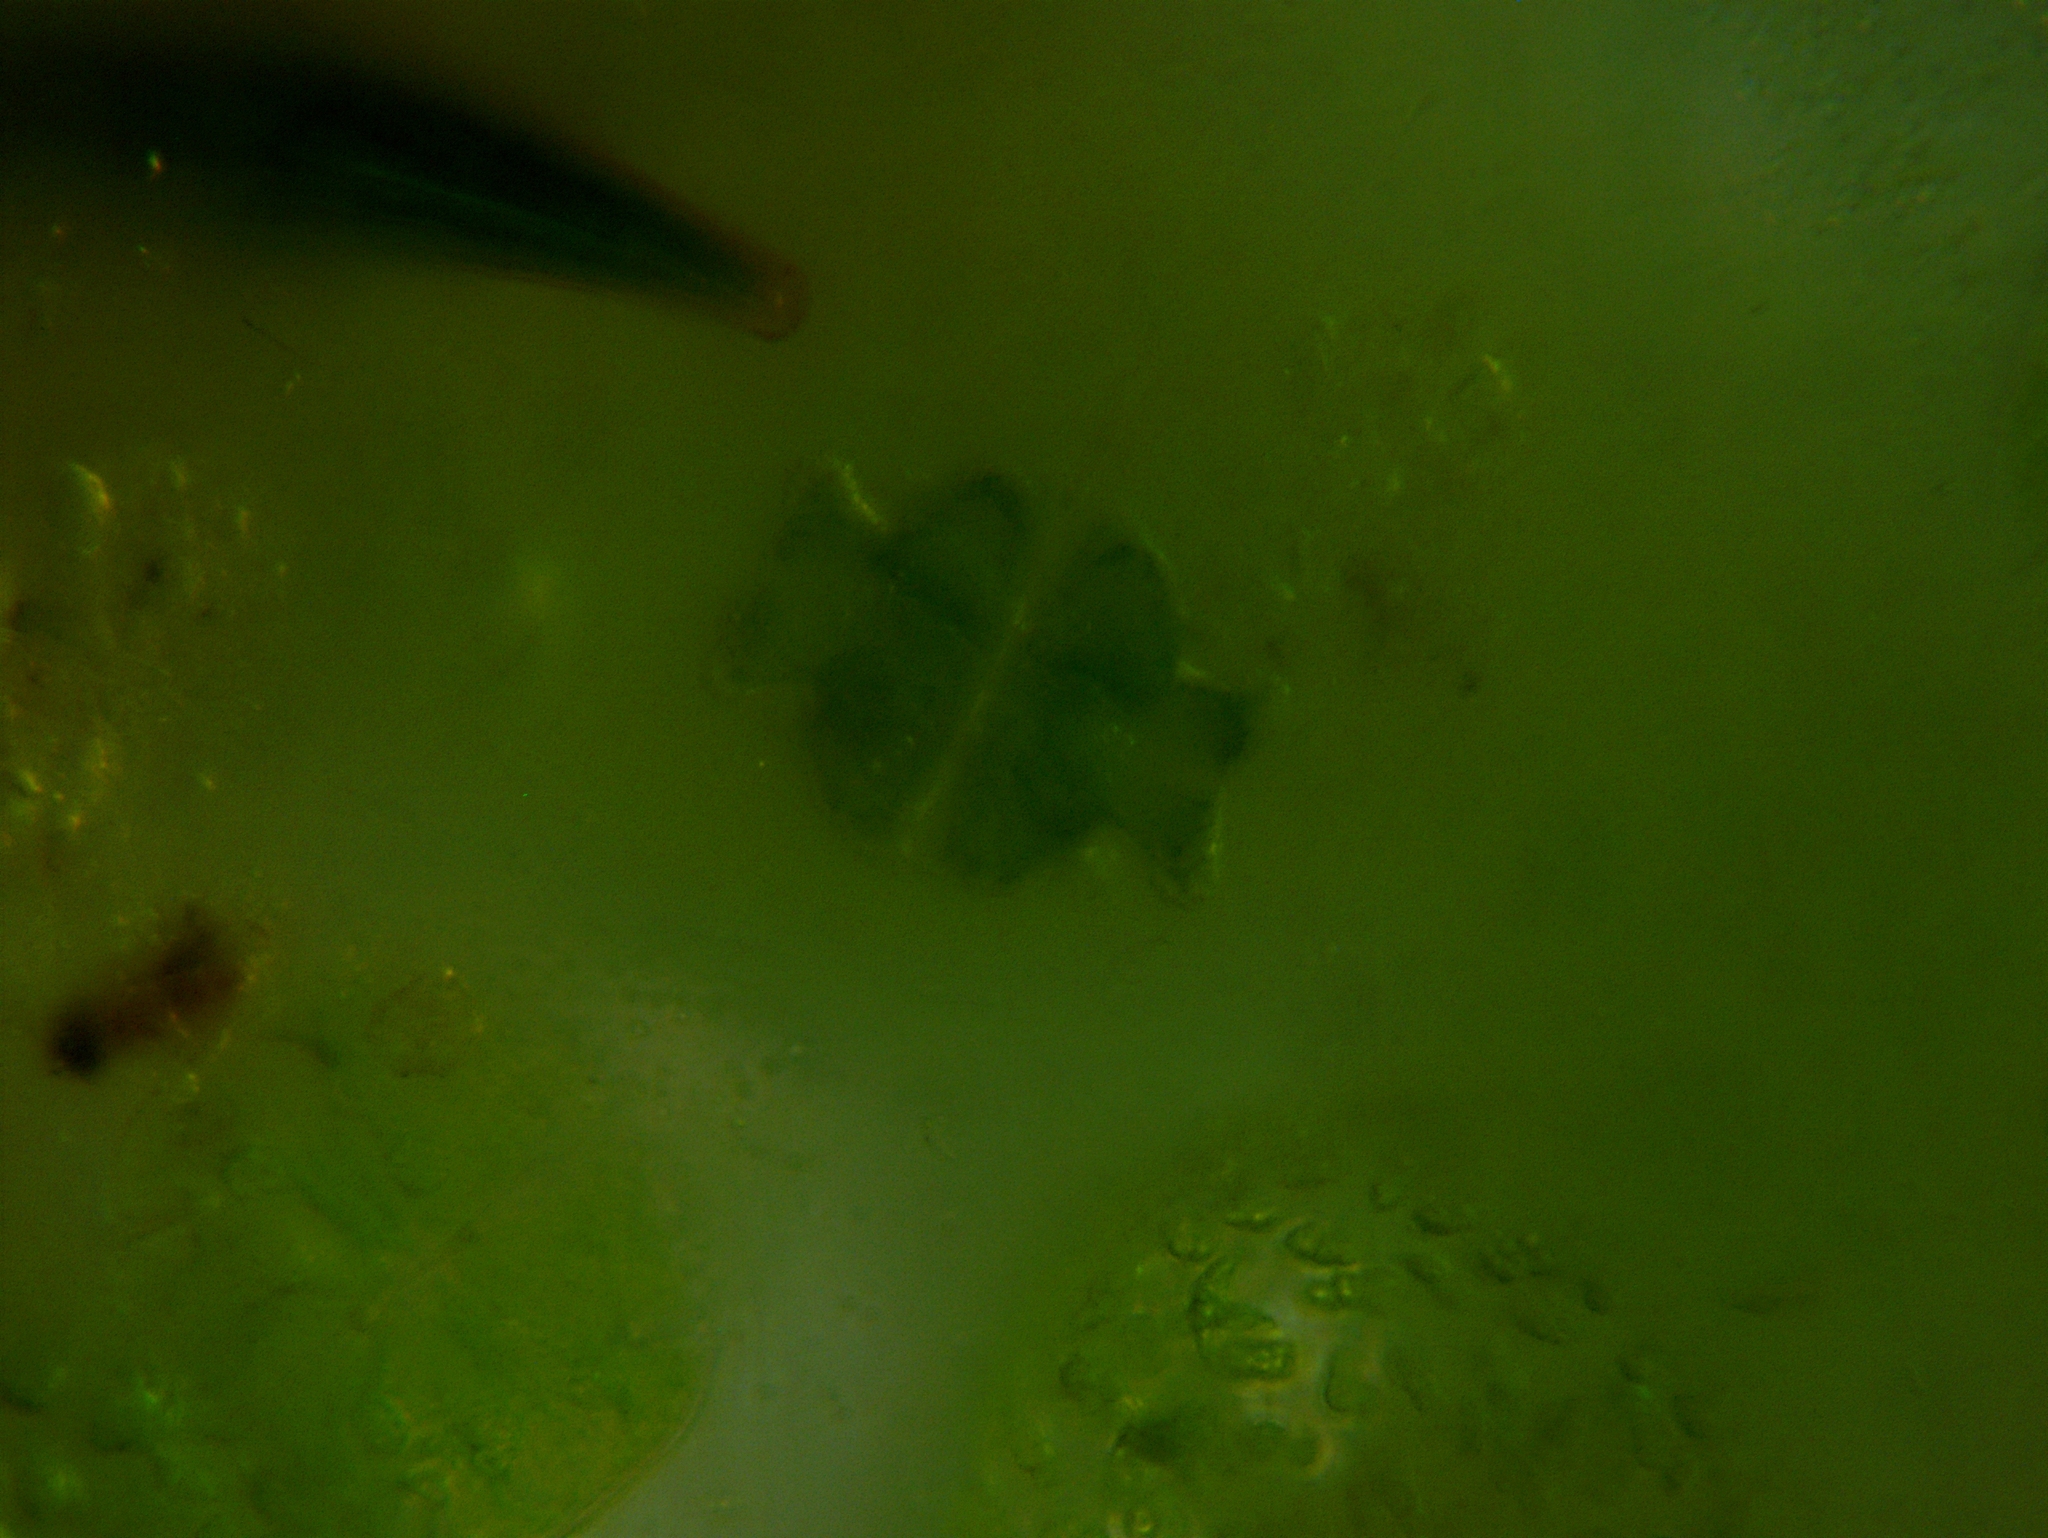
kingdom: Plantae
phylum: Charophyta
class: Conjugatophyceae
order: Desmidiales
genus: Euastrum
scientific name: Euastrum verrucosum
